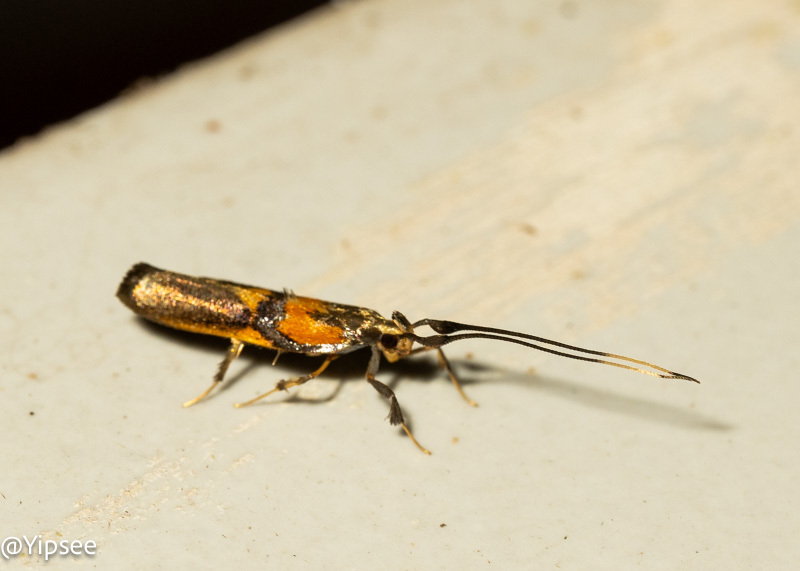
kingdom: Animalia
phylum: Arthropoda
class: Insecta
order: Lepidoptera
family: Lecithoceridae
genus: Tisis
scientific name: Tisis helioclina
